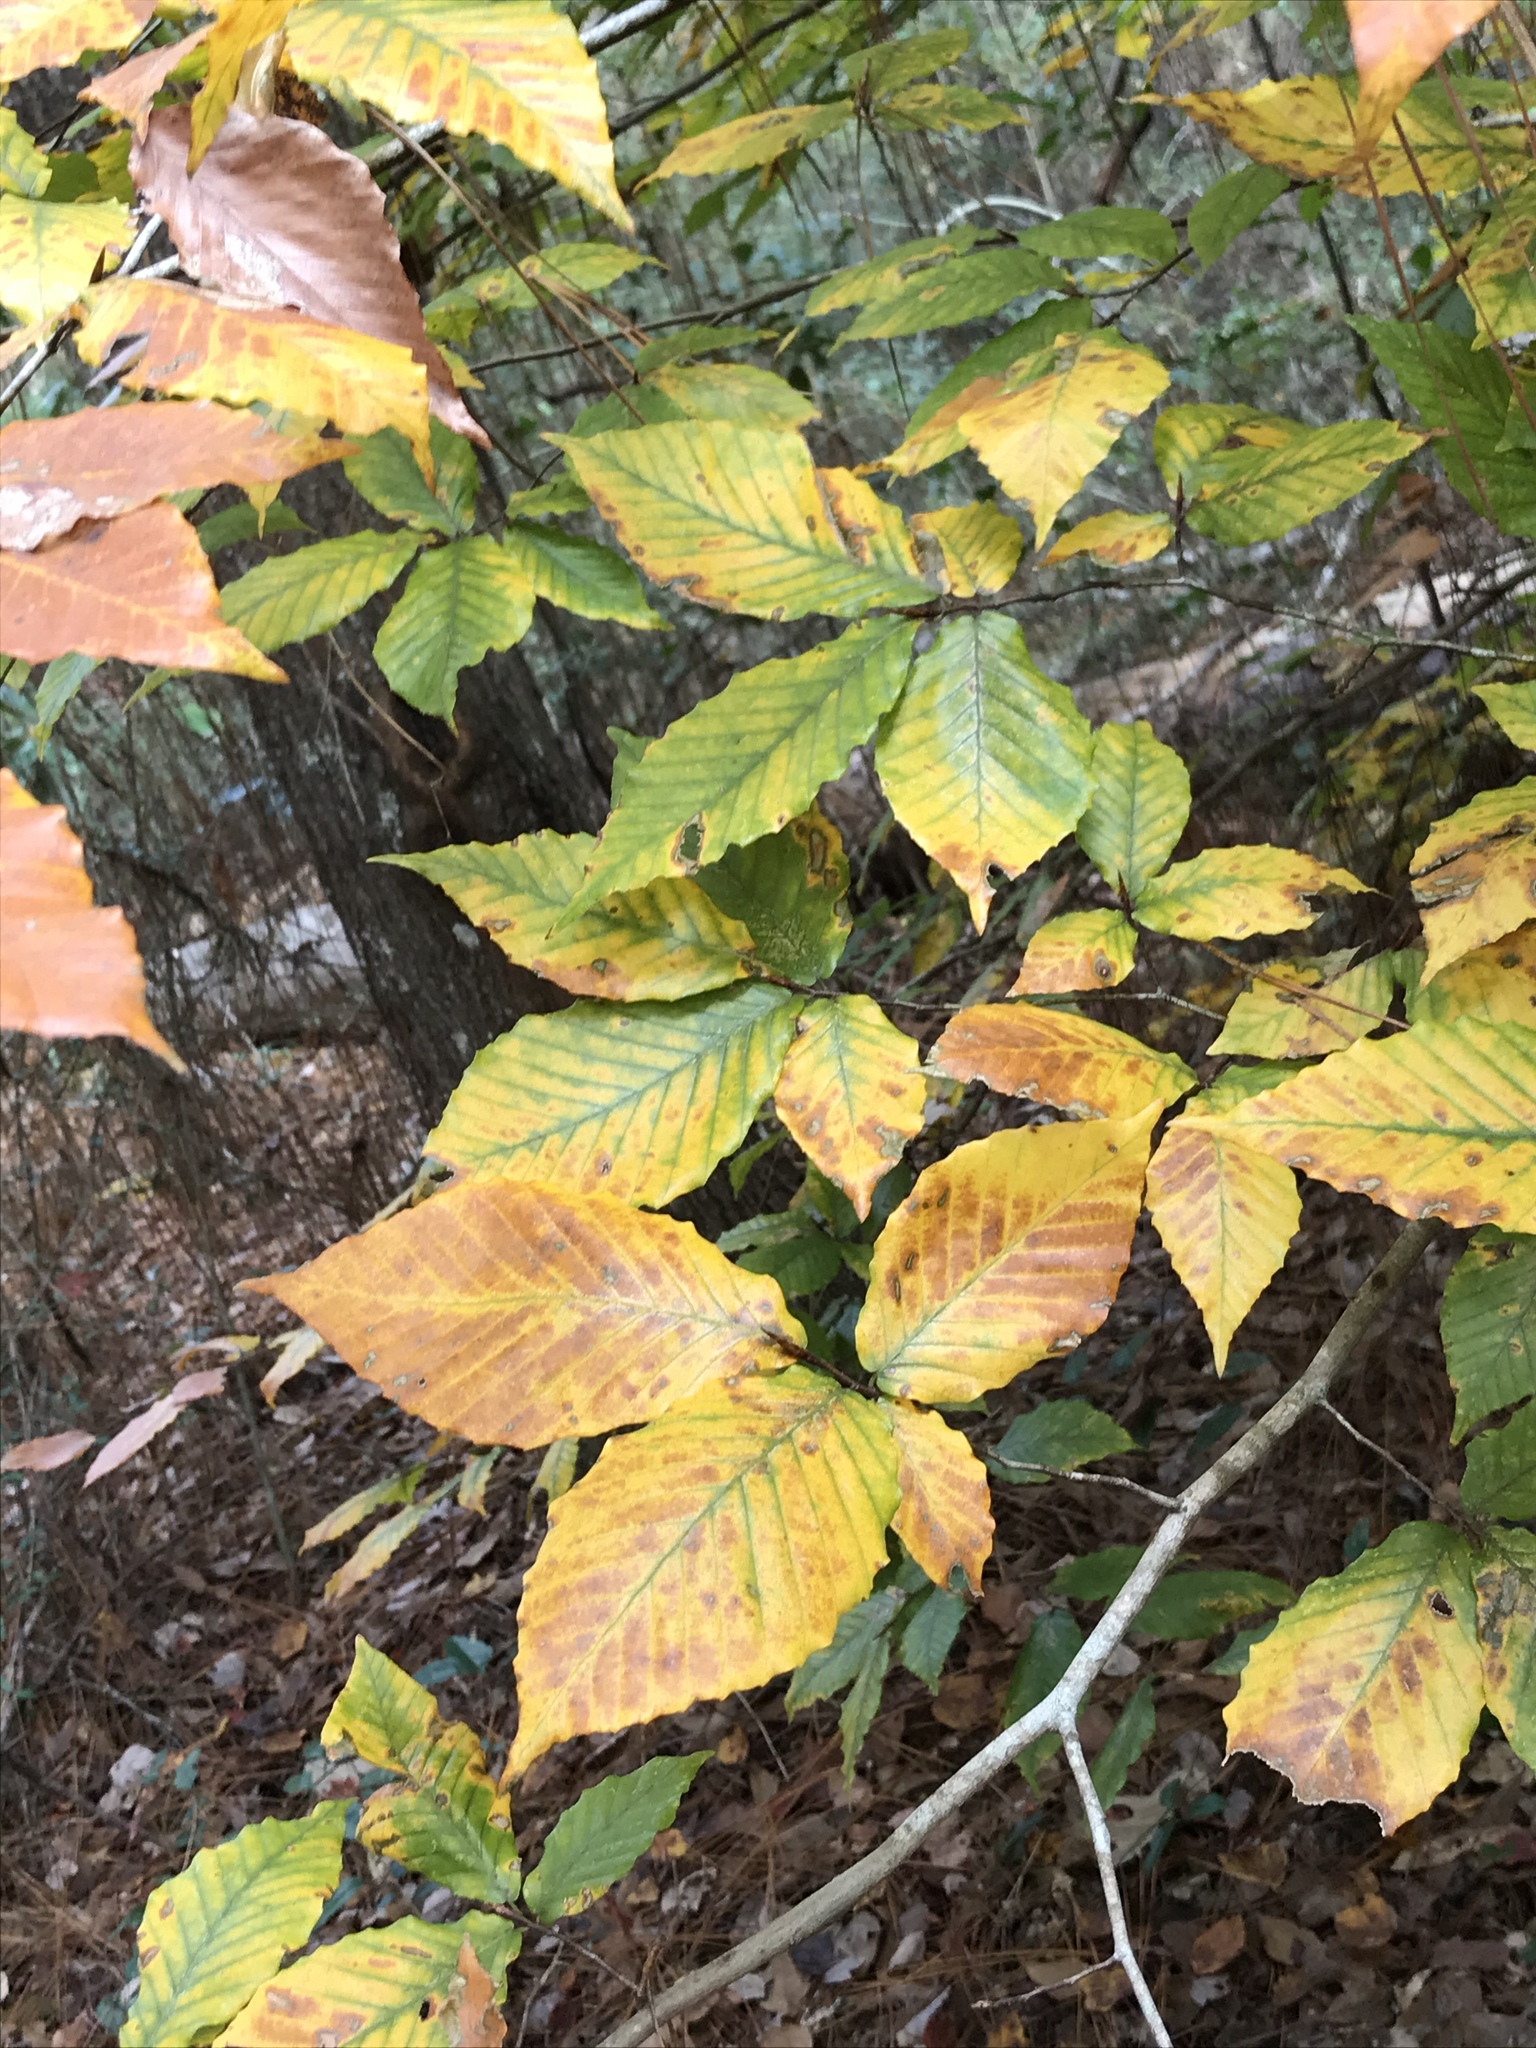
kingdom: Plantae
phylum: Tracheophyta
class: Magnoliopsida
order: Fagales
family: Fagaceae
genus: Fagus
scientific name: Fagus grandifolia
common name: American beech
